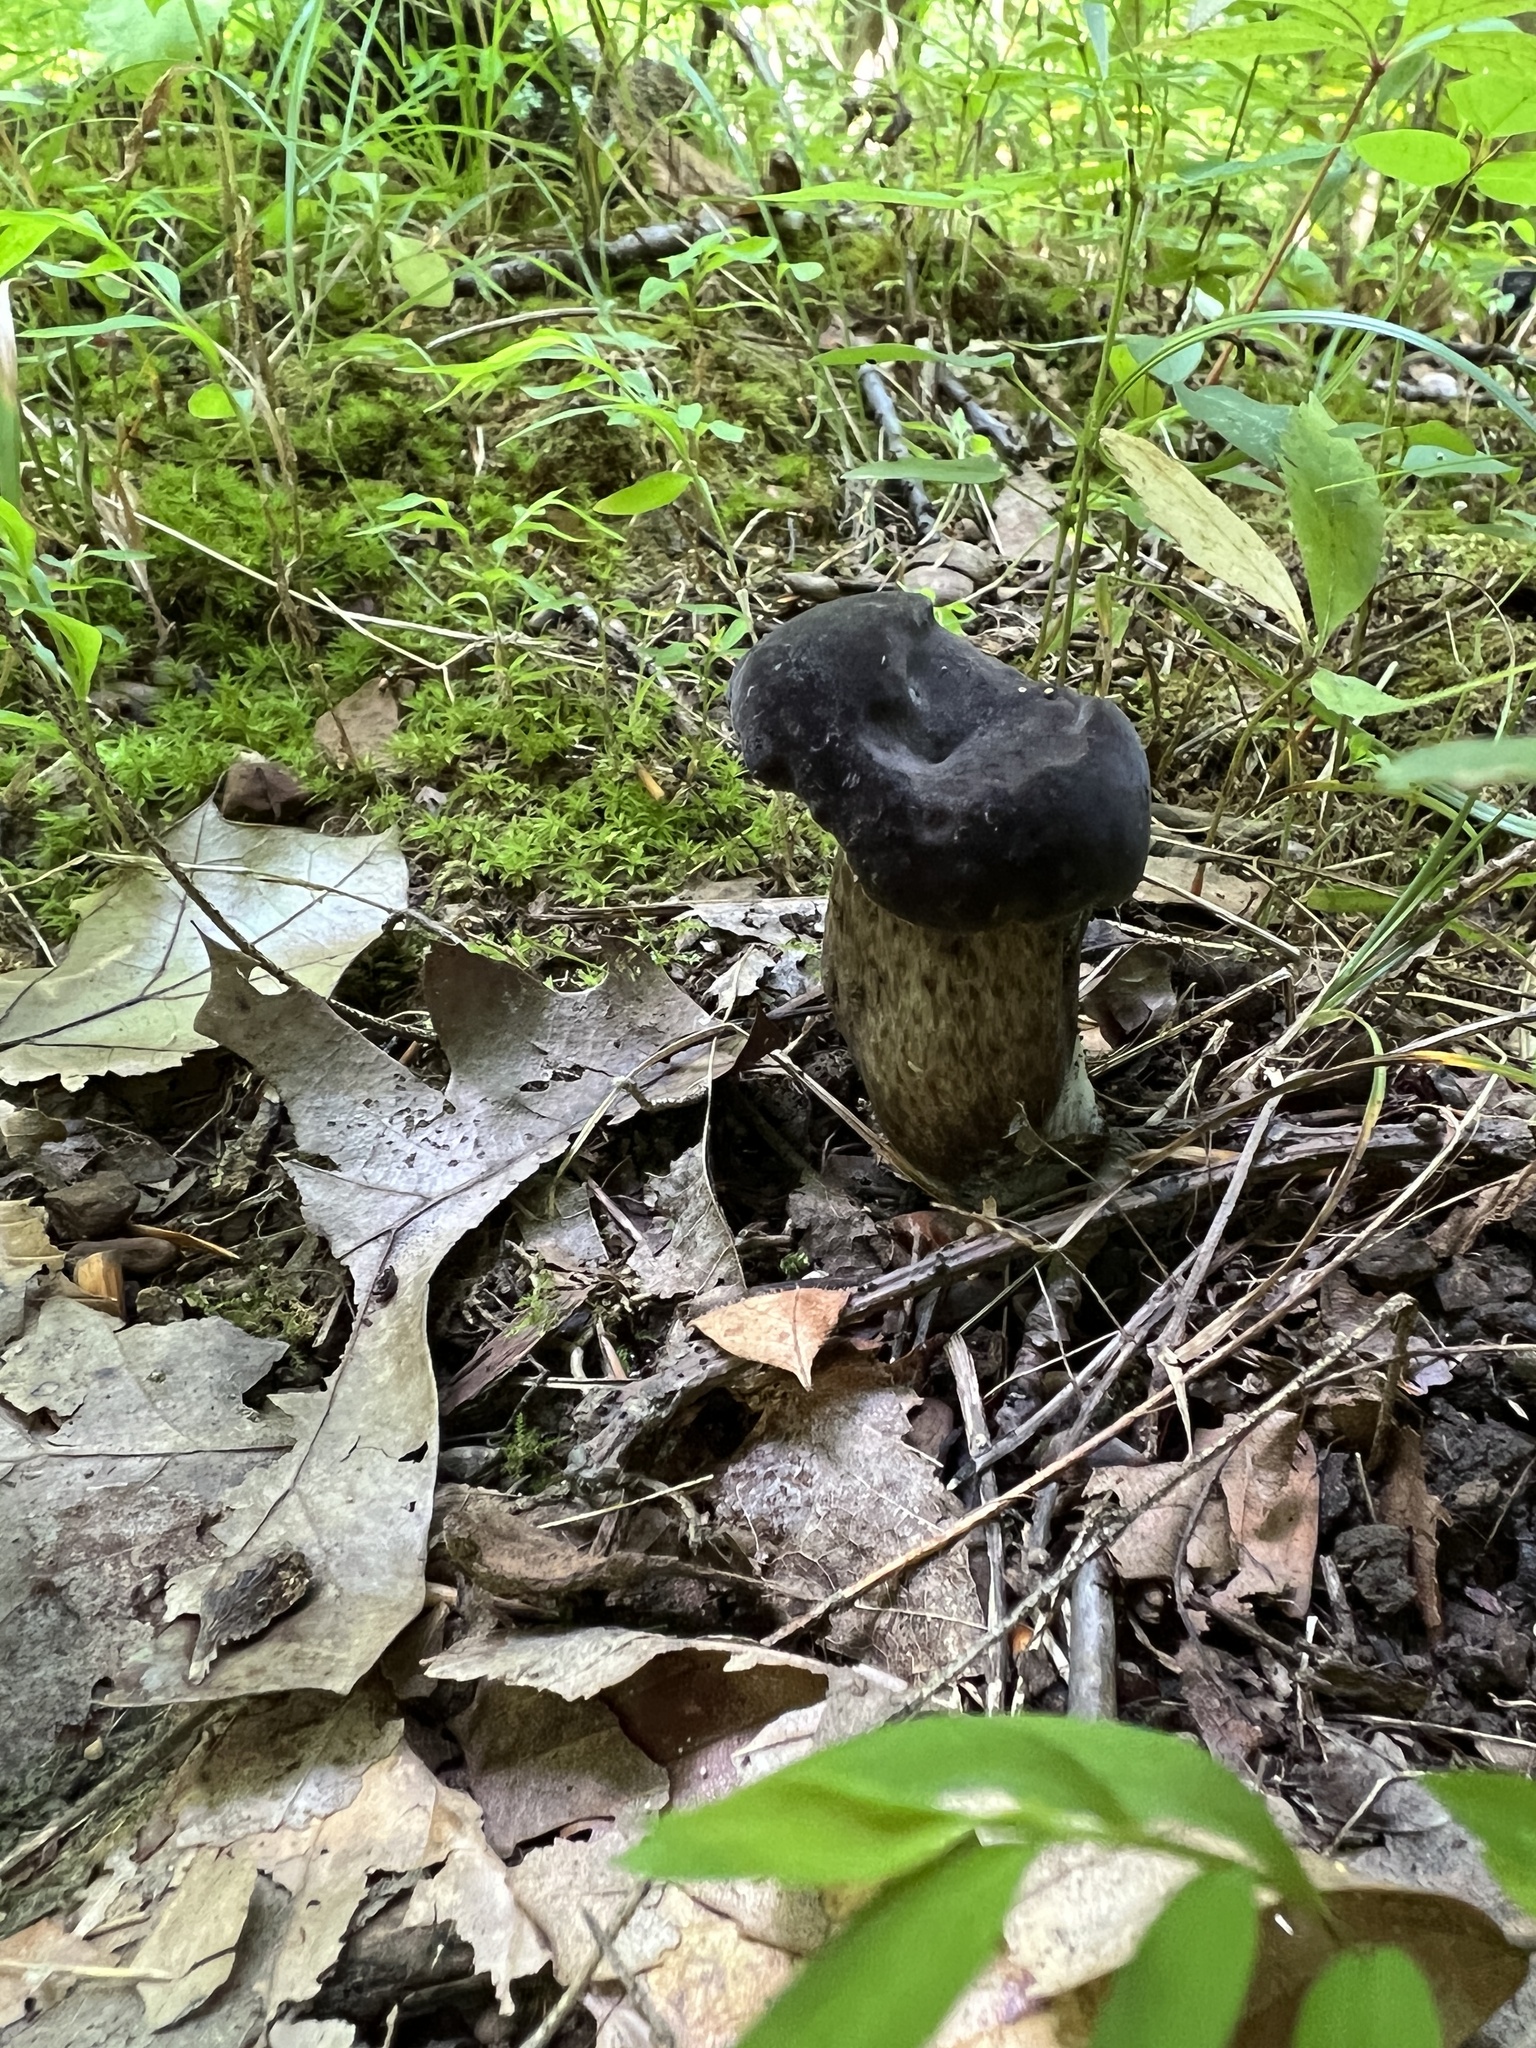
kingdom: Fungi
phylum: Basidiomycota
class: Agaricomycetes
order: Boletales
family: Boletaceae
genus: Tylopilus
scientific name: Tylopilus alboater
